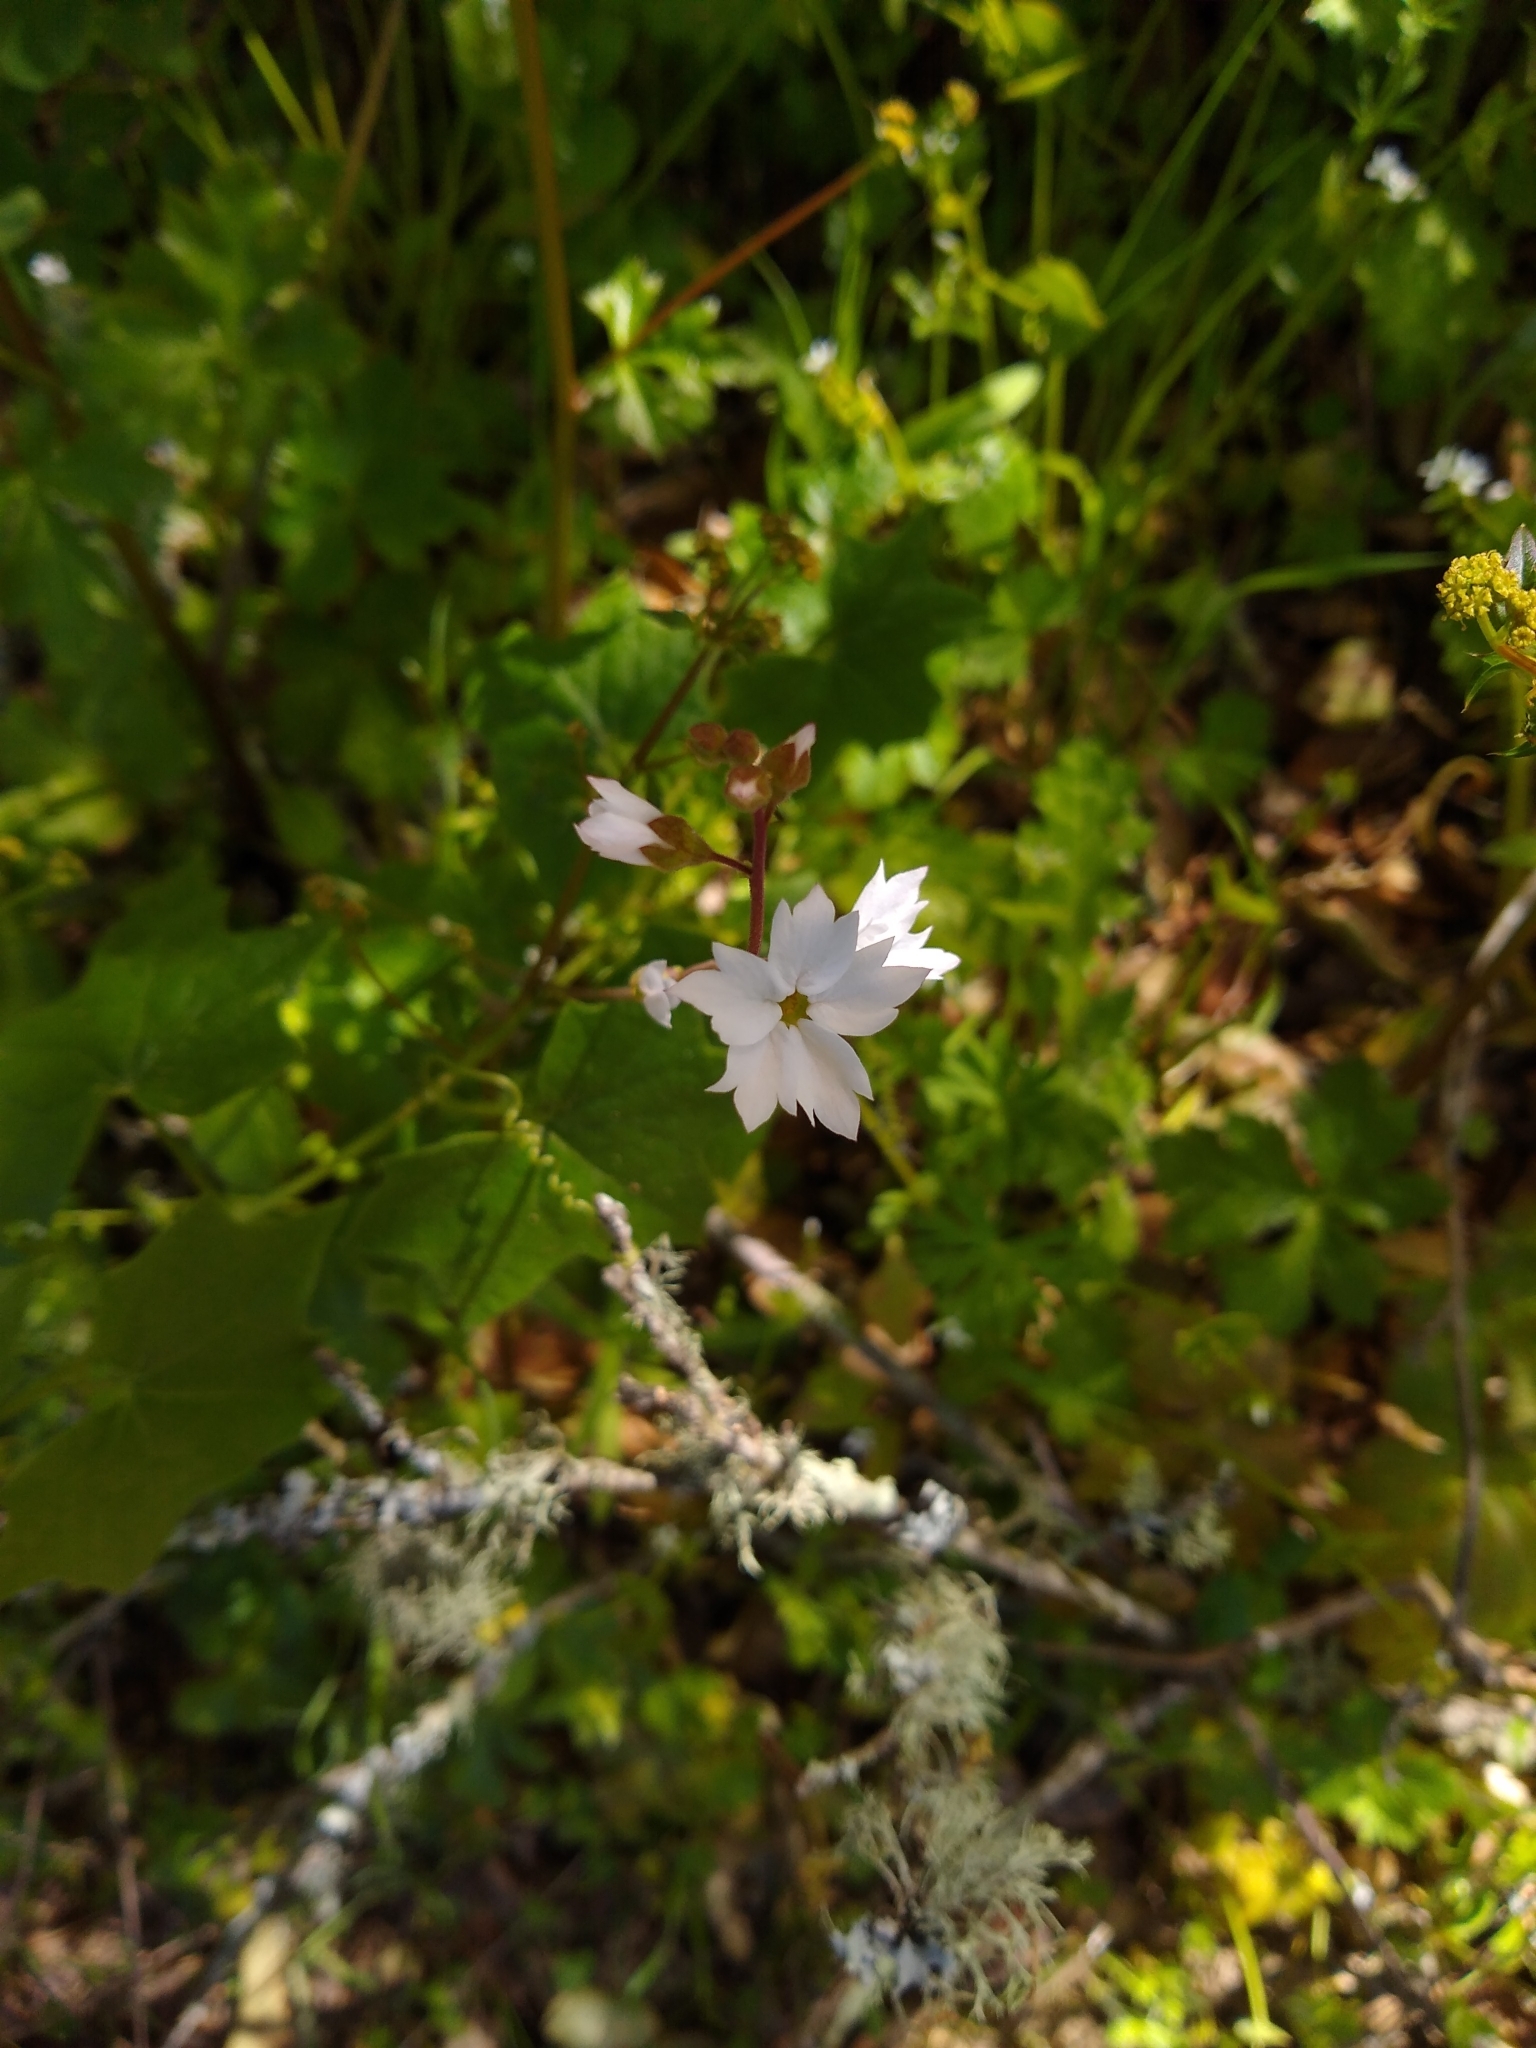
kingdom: Plantae
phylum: Tracheophyta
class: Magnoliopsida
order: Saxifragales
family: Saxifragaceae
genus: Lithophragma
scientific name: Lithophragma affine
